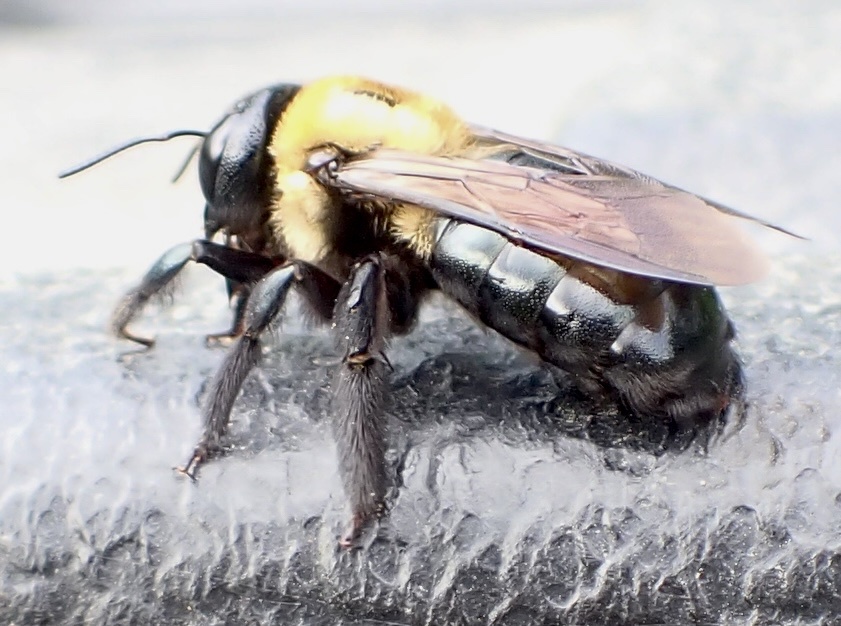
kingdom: Animalia
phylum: Arthropoda
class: Insecta
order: Hymenoptera
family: Apidae
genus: Xylocopa
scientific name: Xylocopa virginica
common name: Carpenter bee
